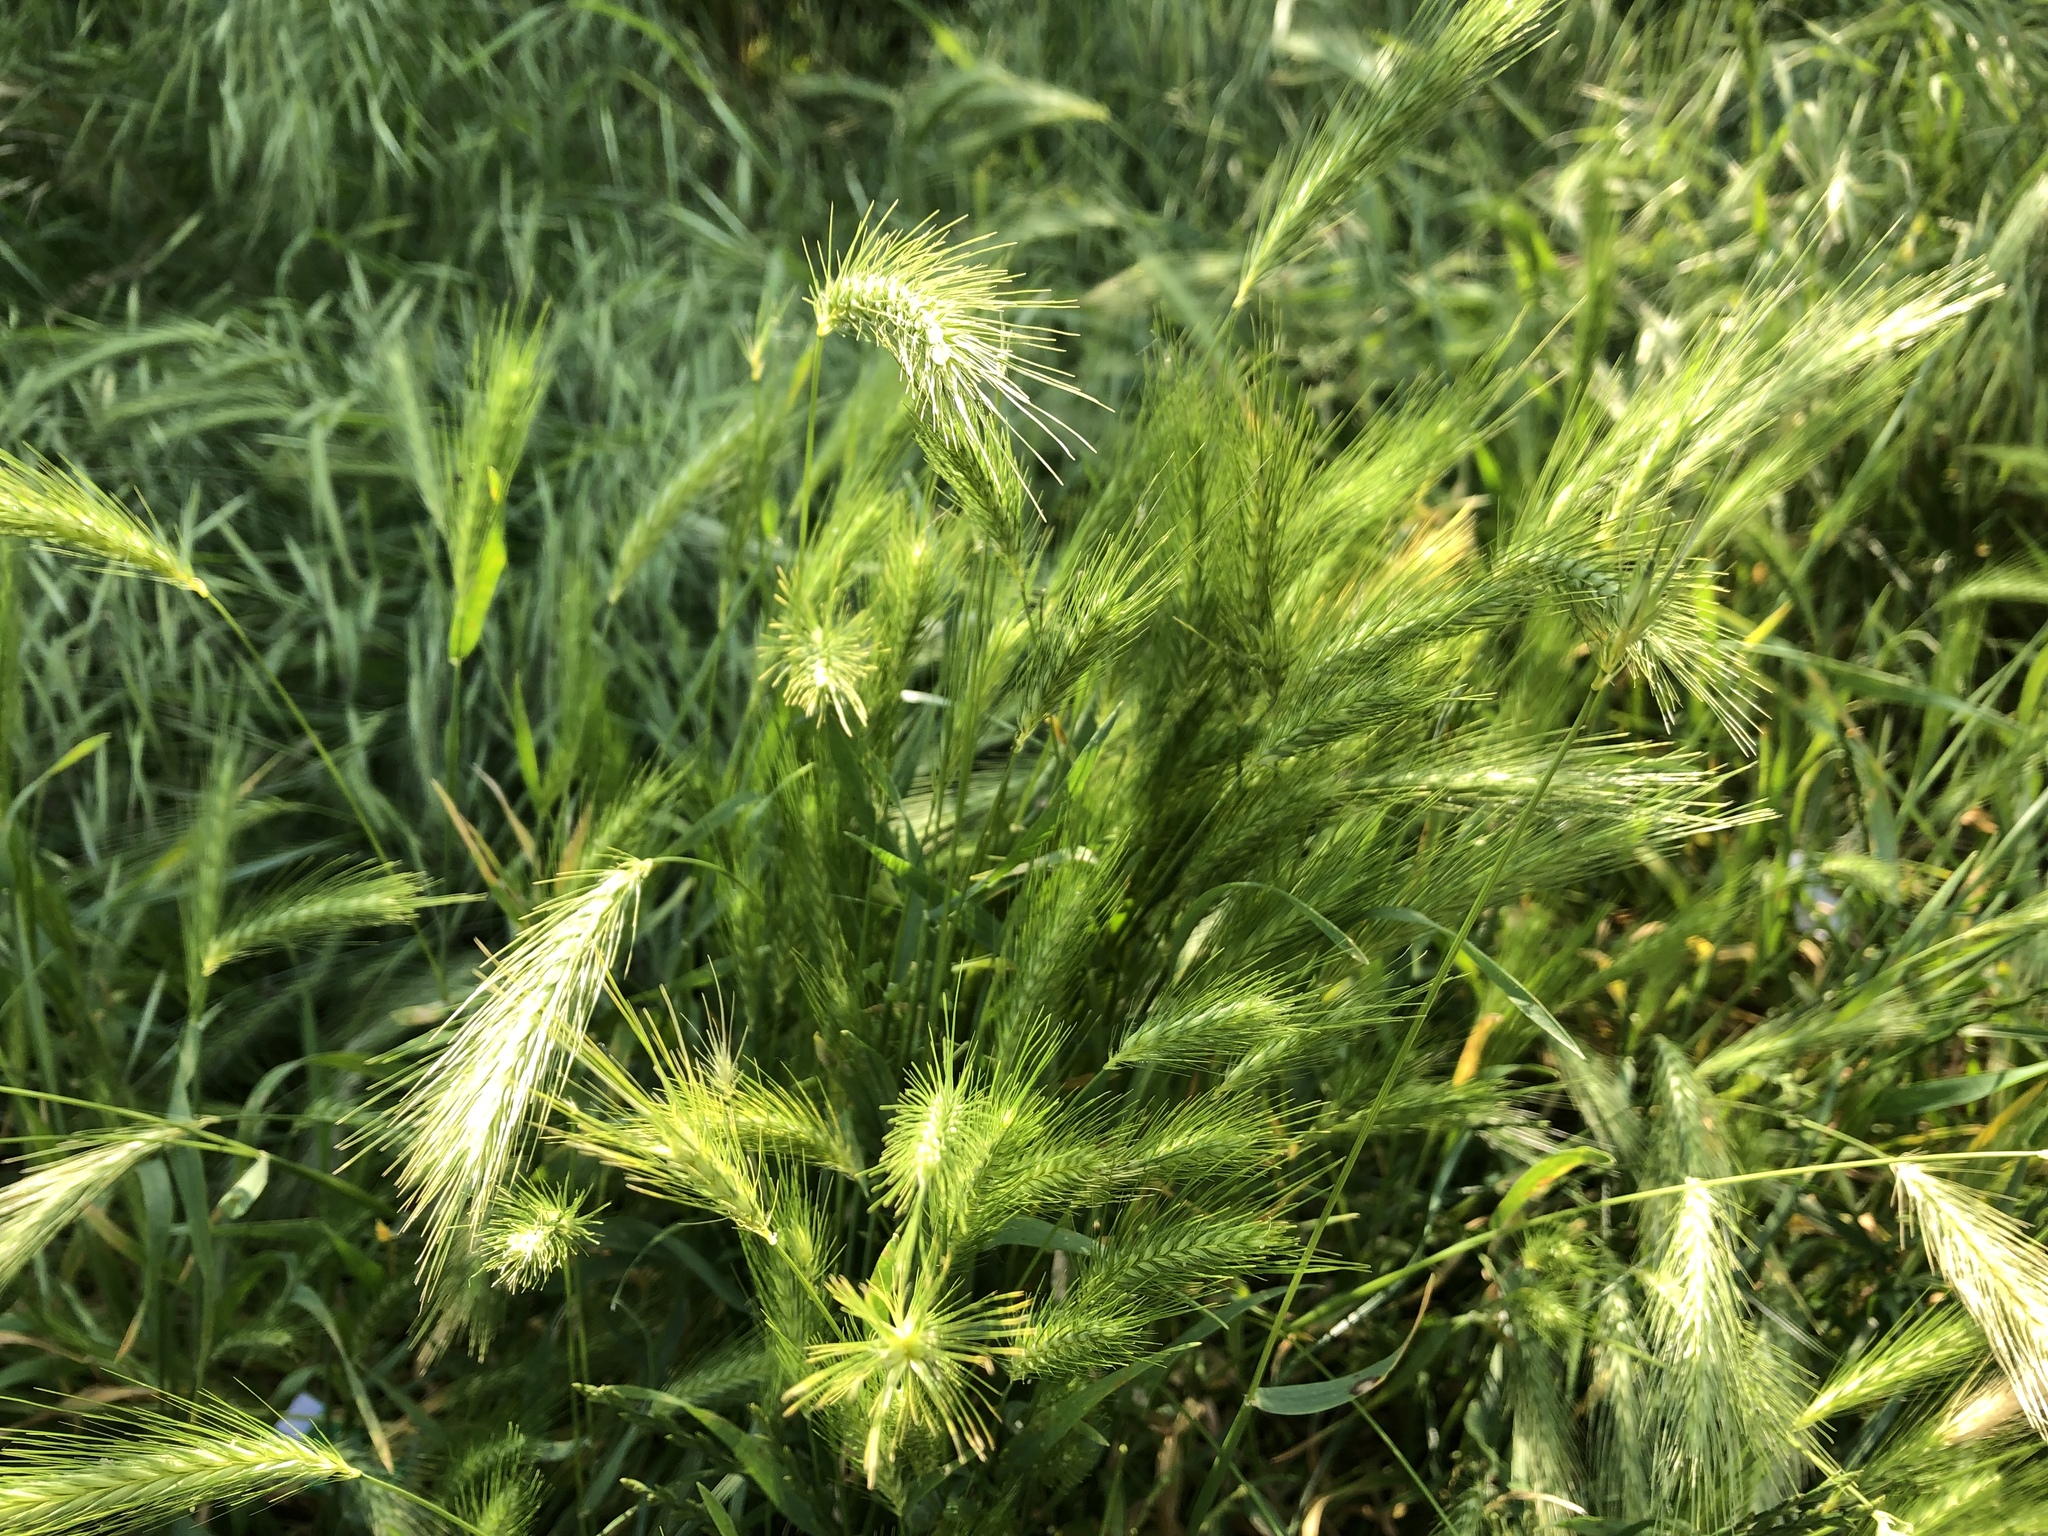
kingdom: Plantae
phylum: Tracheophyta
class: Liliopsida
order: Poales
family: Poaceae
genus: Hordeum
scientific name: Hordeum murinum
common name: Wall barley
